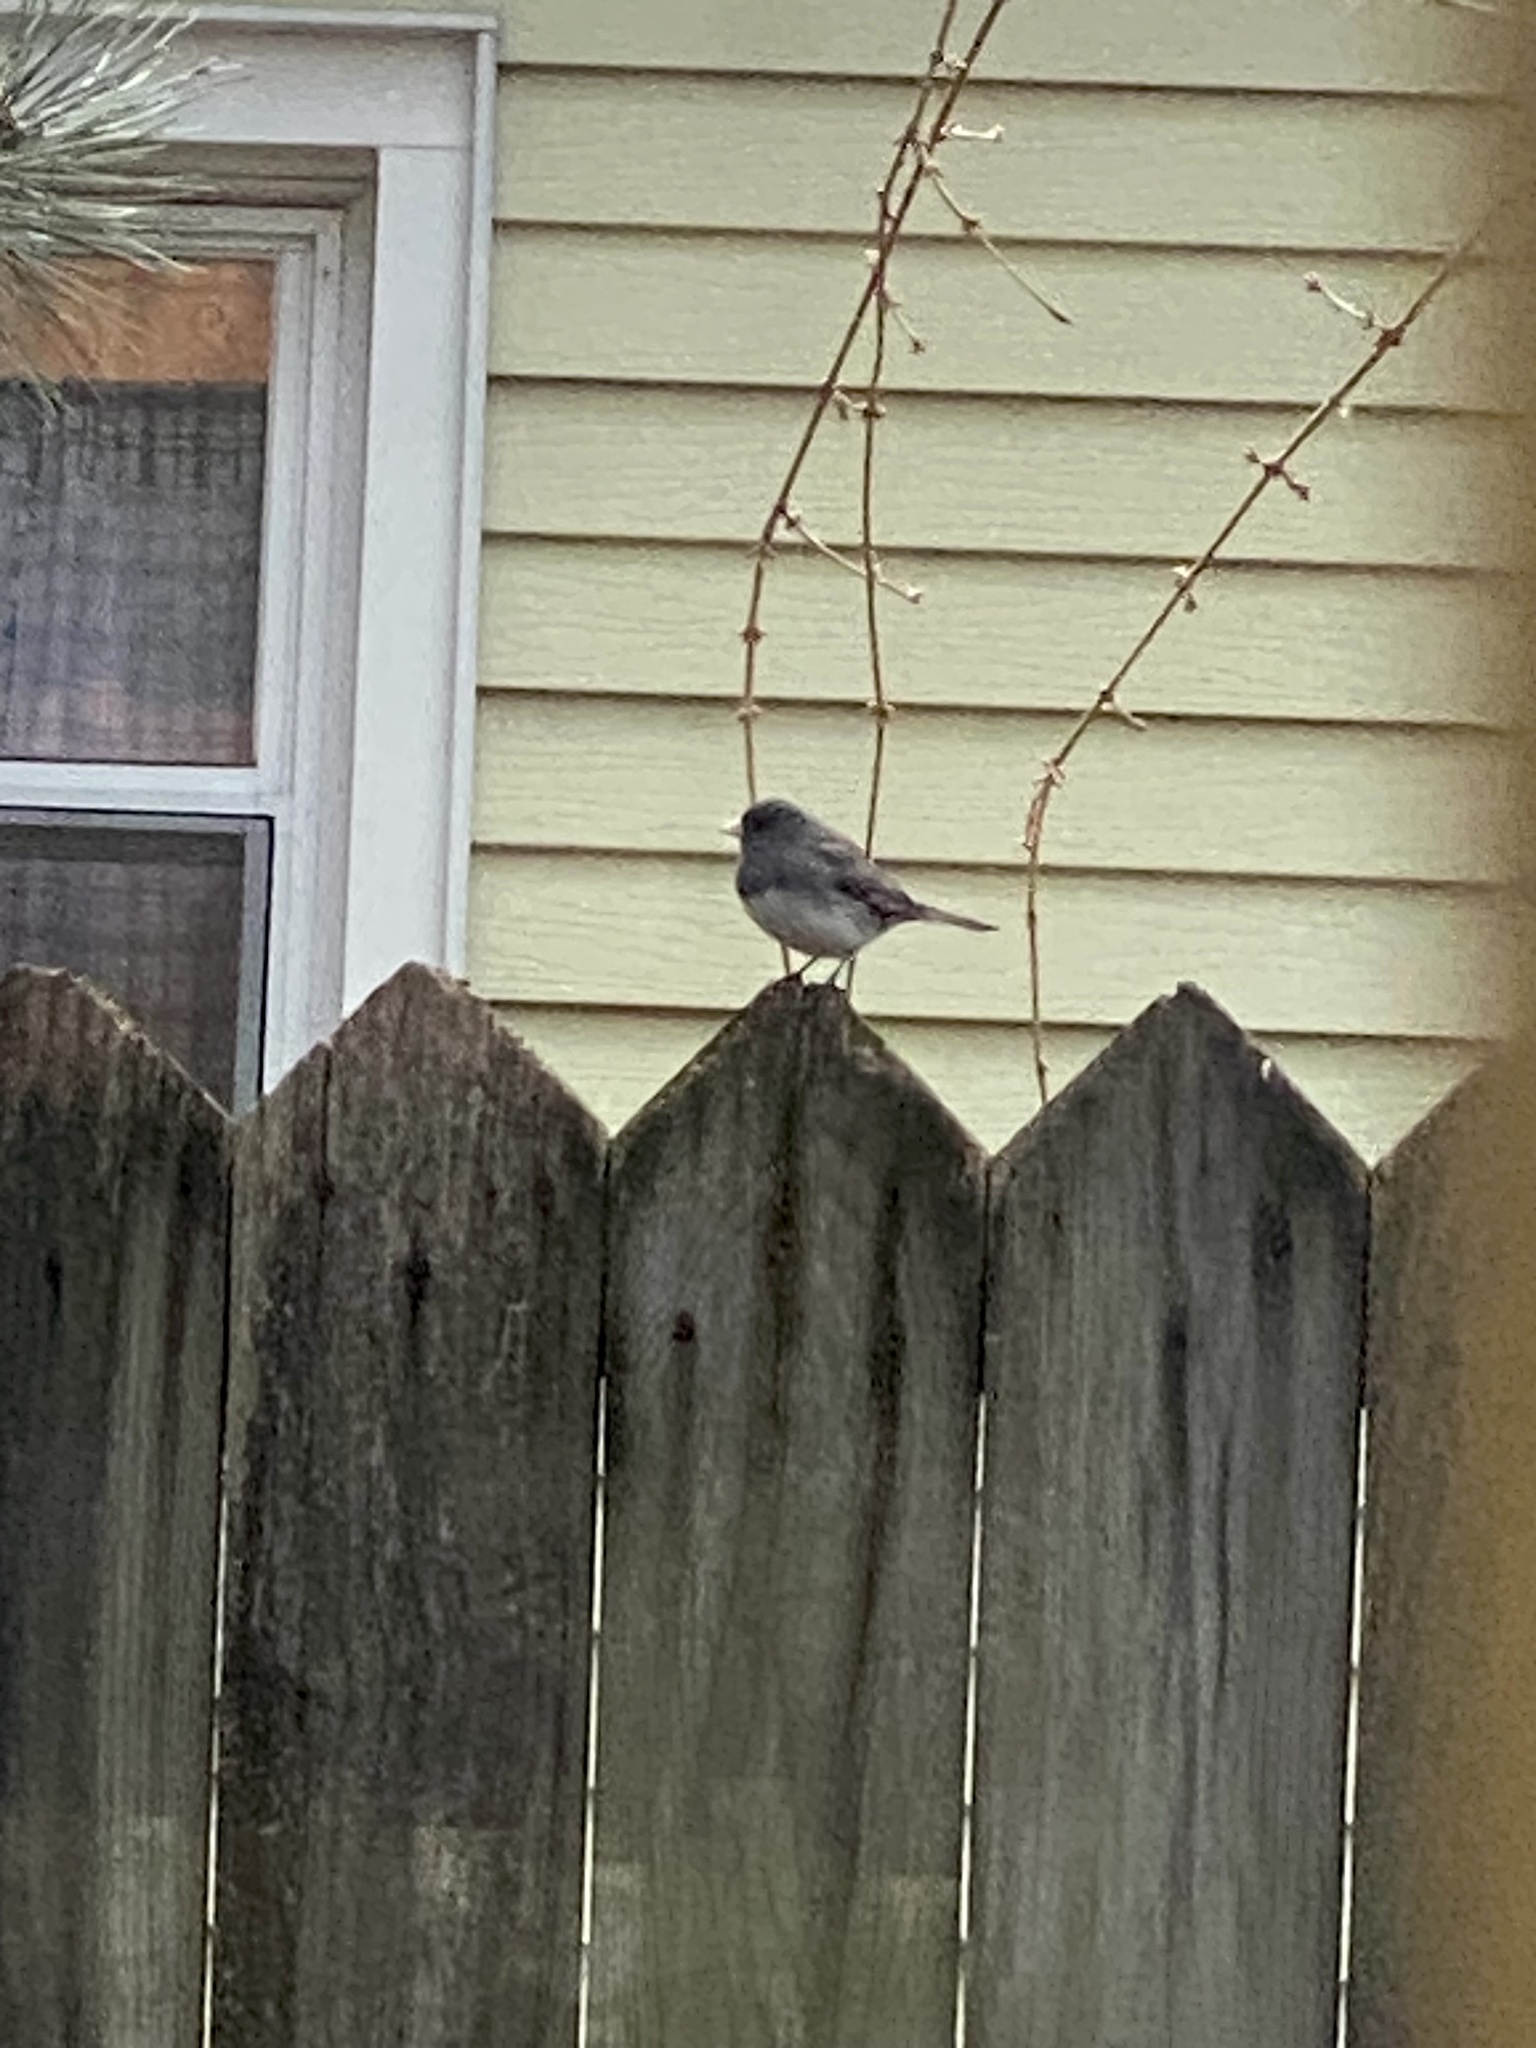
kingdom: Animalia
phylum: Chordata
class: Aves
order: Passeriformes
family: Passerellidae
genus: Junco
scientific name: Junco hyemalis
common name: Dark-eyed junco
